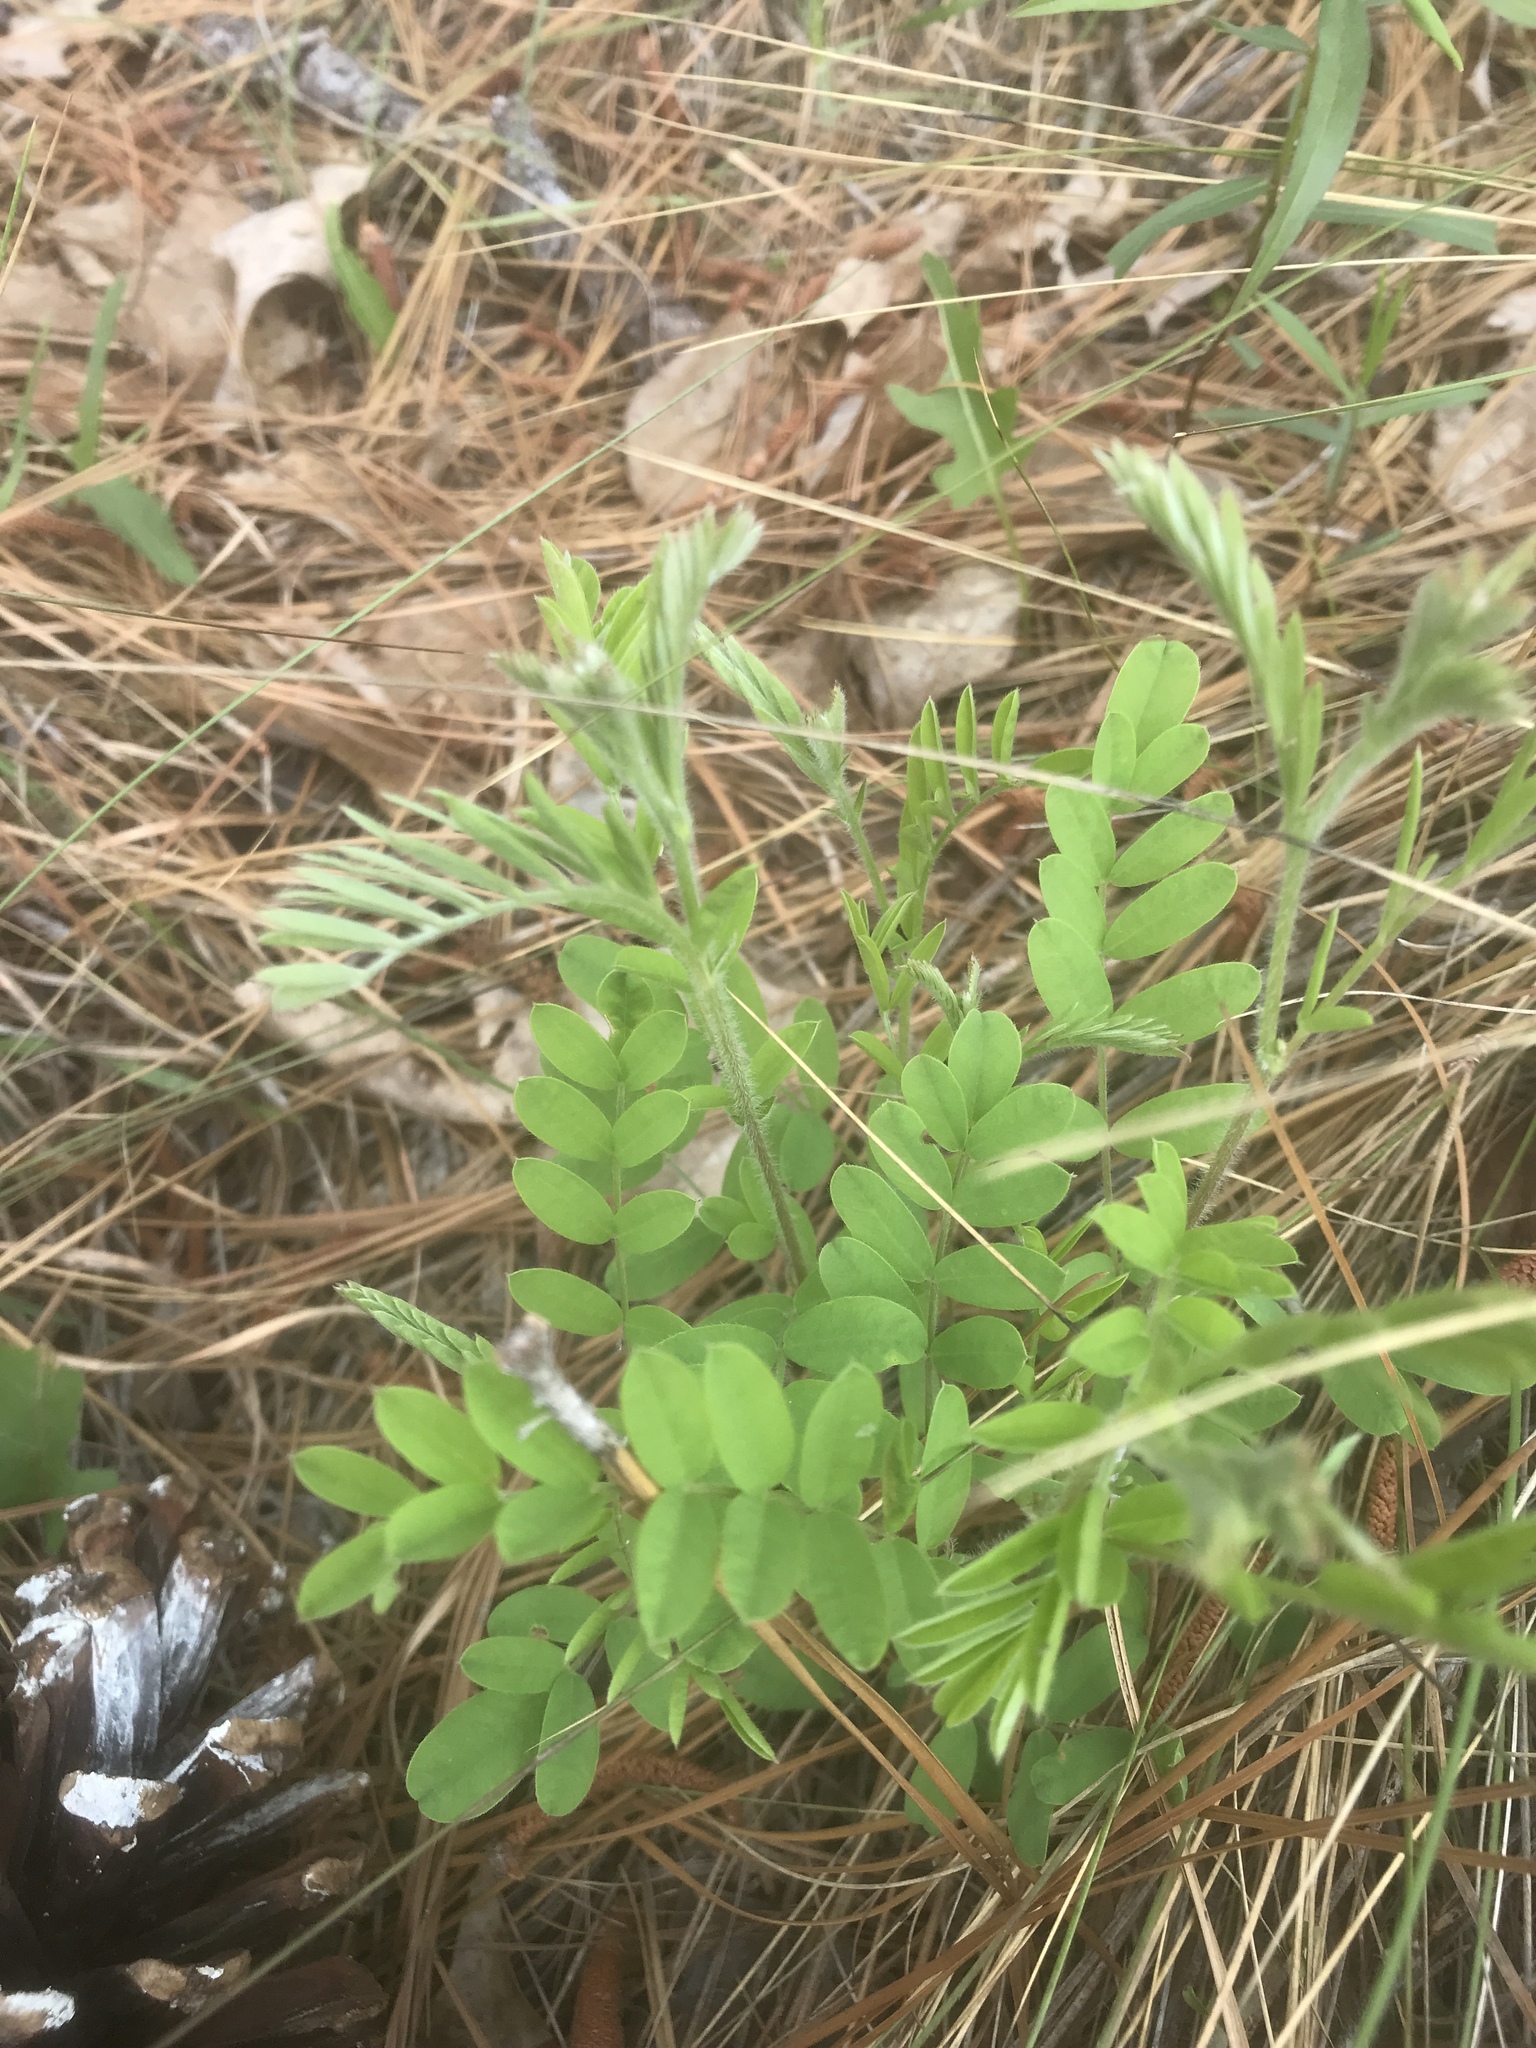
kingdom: Plantae
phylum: Tracheophyta
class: Magnoliopsida
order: Fabales
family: Fabaceae
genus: Tephrosia
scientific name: Tephrosia virginiana
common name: Rabbit-pea
